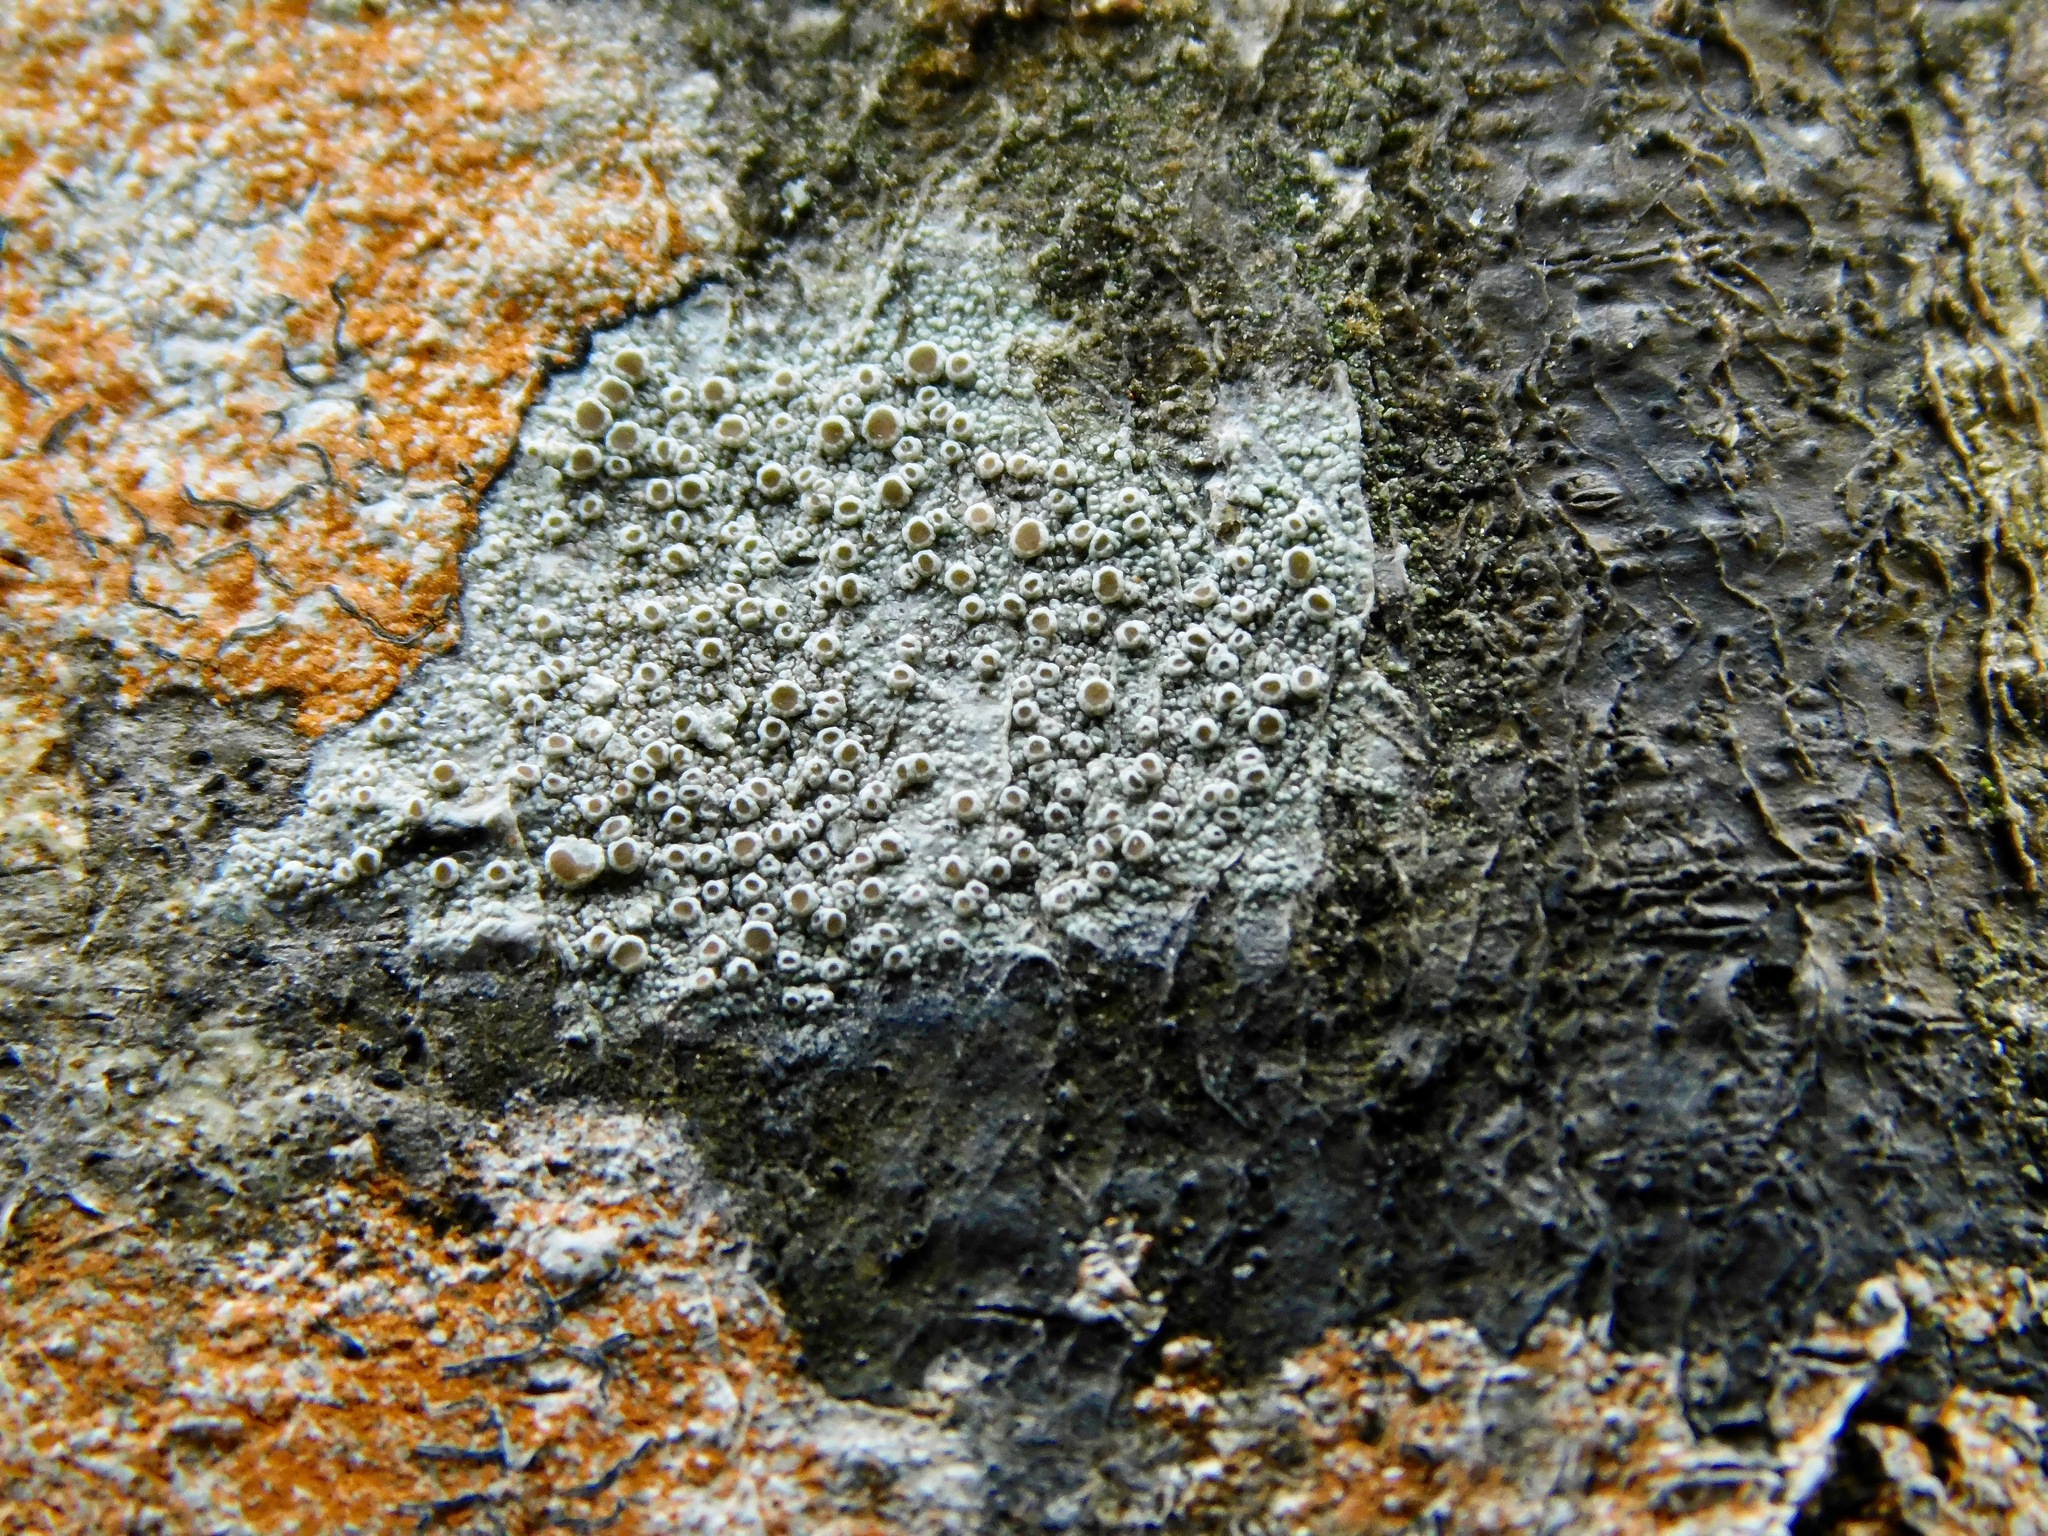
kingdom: Fungi
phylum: Ascomycota
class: Lecanoromycetes
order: Lecanorales
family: Lecanoraceae
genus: Lecanora
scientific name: Lecanora cinereofusca
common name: Beaded rim-lichen
